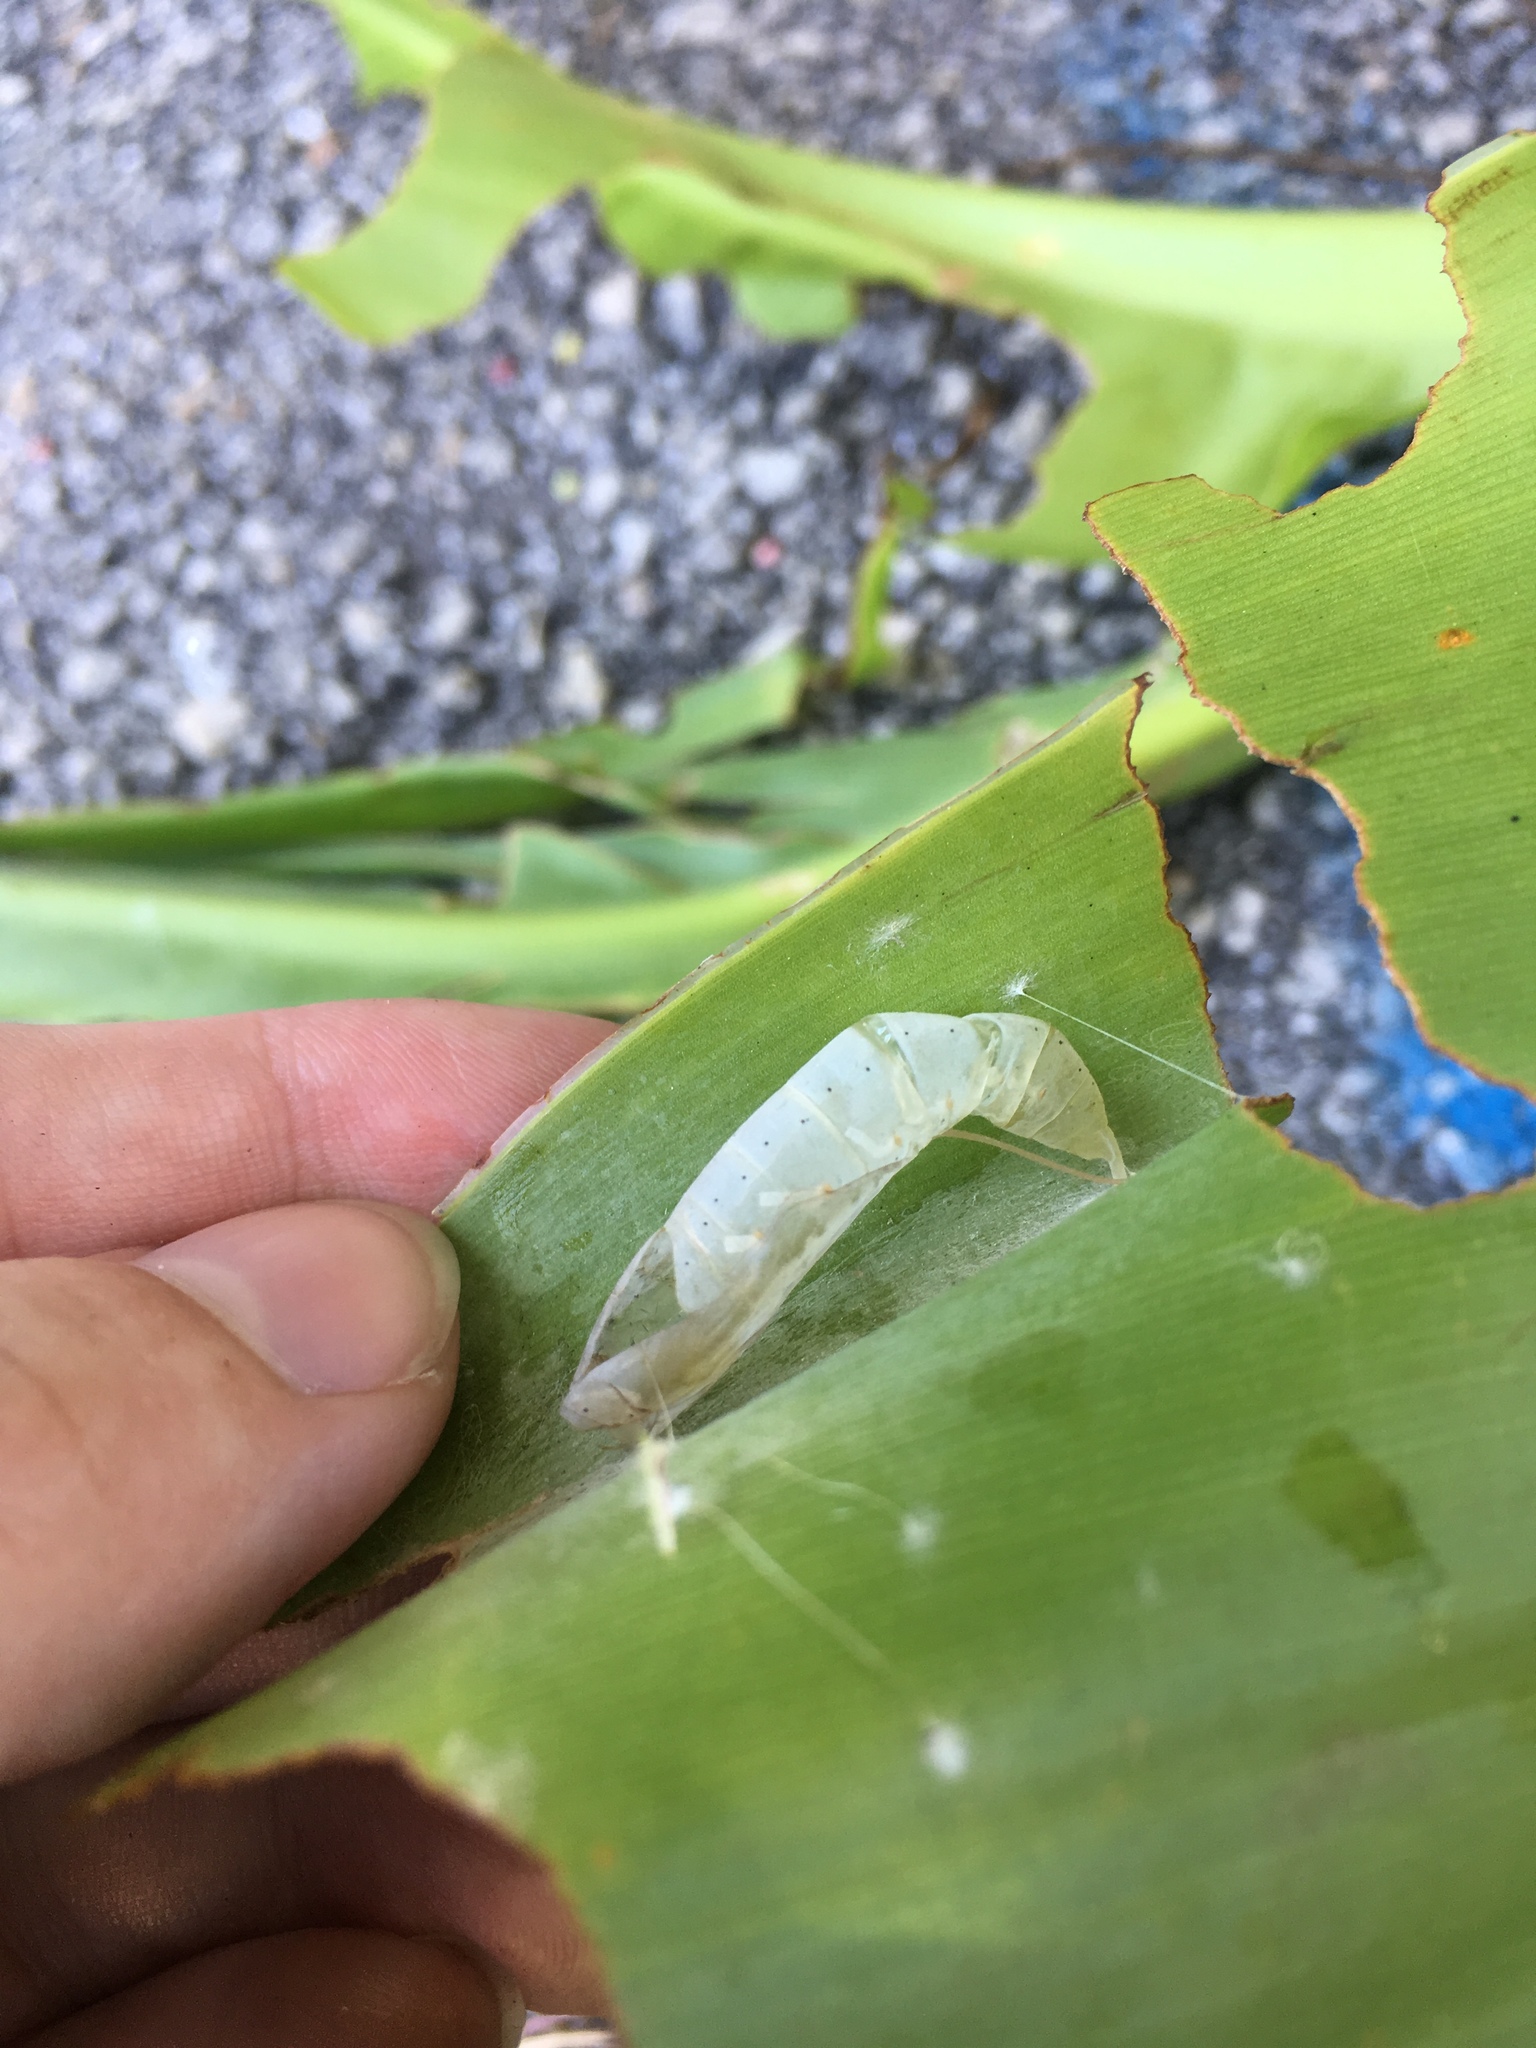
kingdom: Animalia
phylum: Arthropoda
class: Insecta
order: Lepidoptera
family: Hesperiidae
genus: Calpodes
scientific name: Calpodes ethlius
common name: Brazilian skipper
